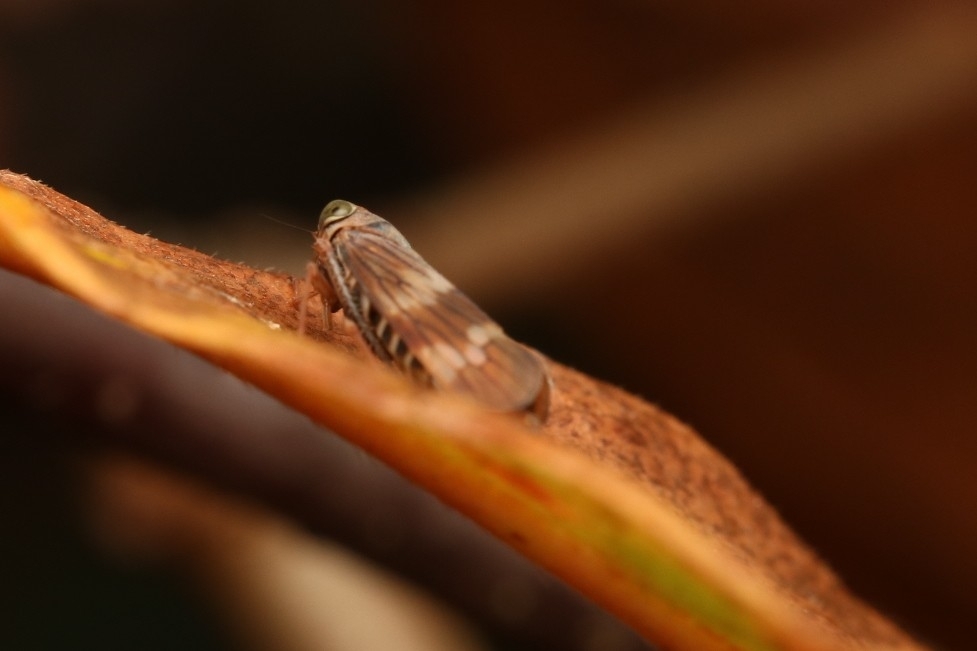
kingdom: Animalia
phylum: Arthropoda
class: Insecta
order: Hemiptera
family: Cicadellidae
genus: Jikradia
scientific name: Jikradia olitoria
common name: Coppery leafhopper
